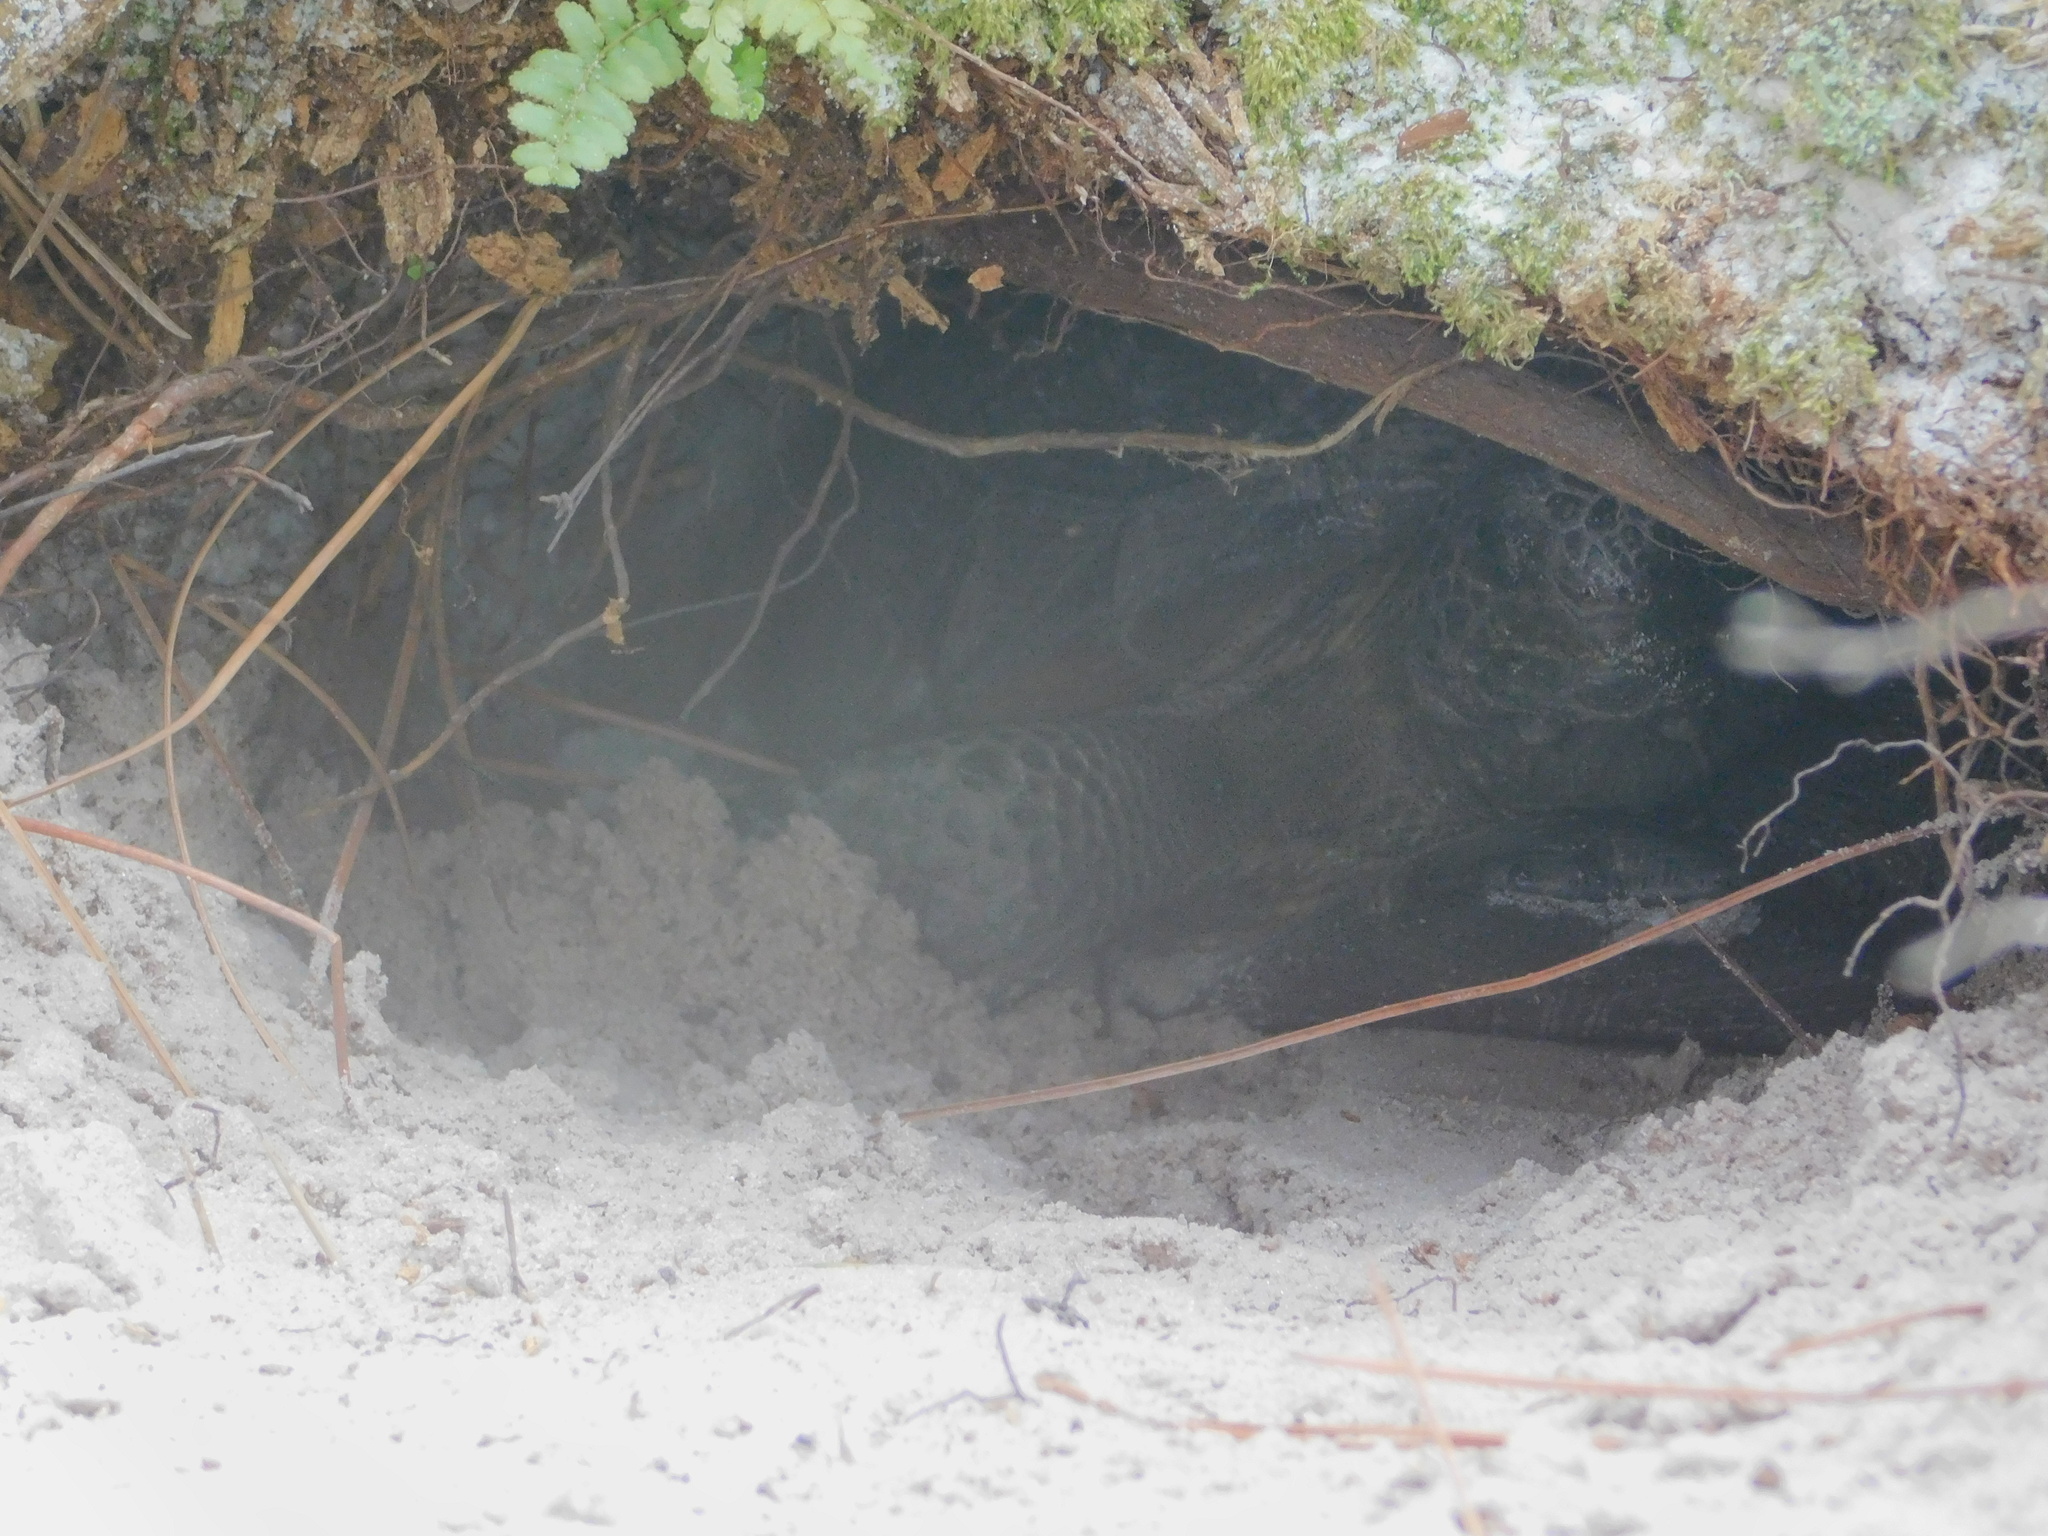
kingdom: Animalia
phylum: Chordata
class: Testudines
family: Testudinidae
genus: Gopherus
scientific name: Gopherus polyphemus
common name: Florida gopher tortoise
